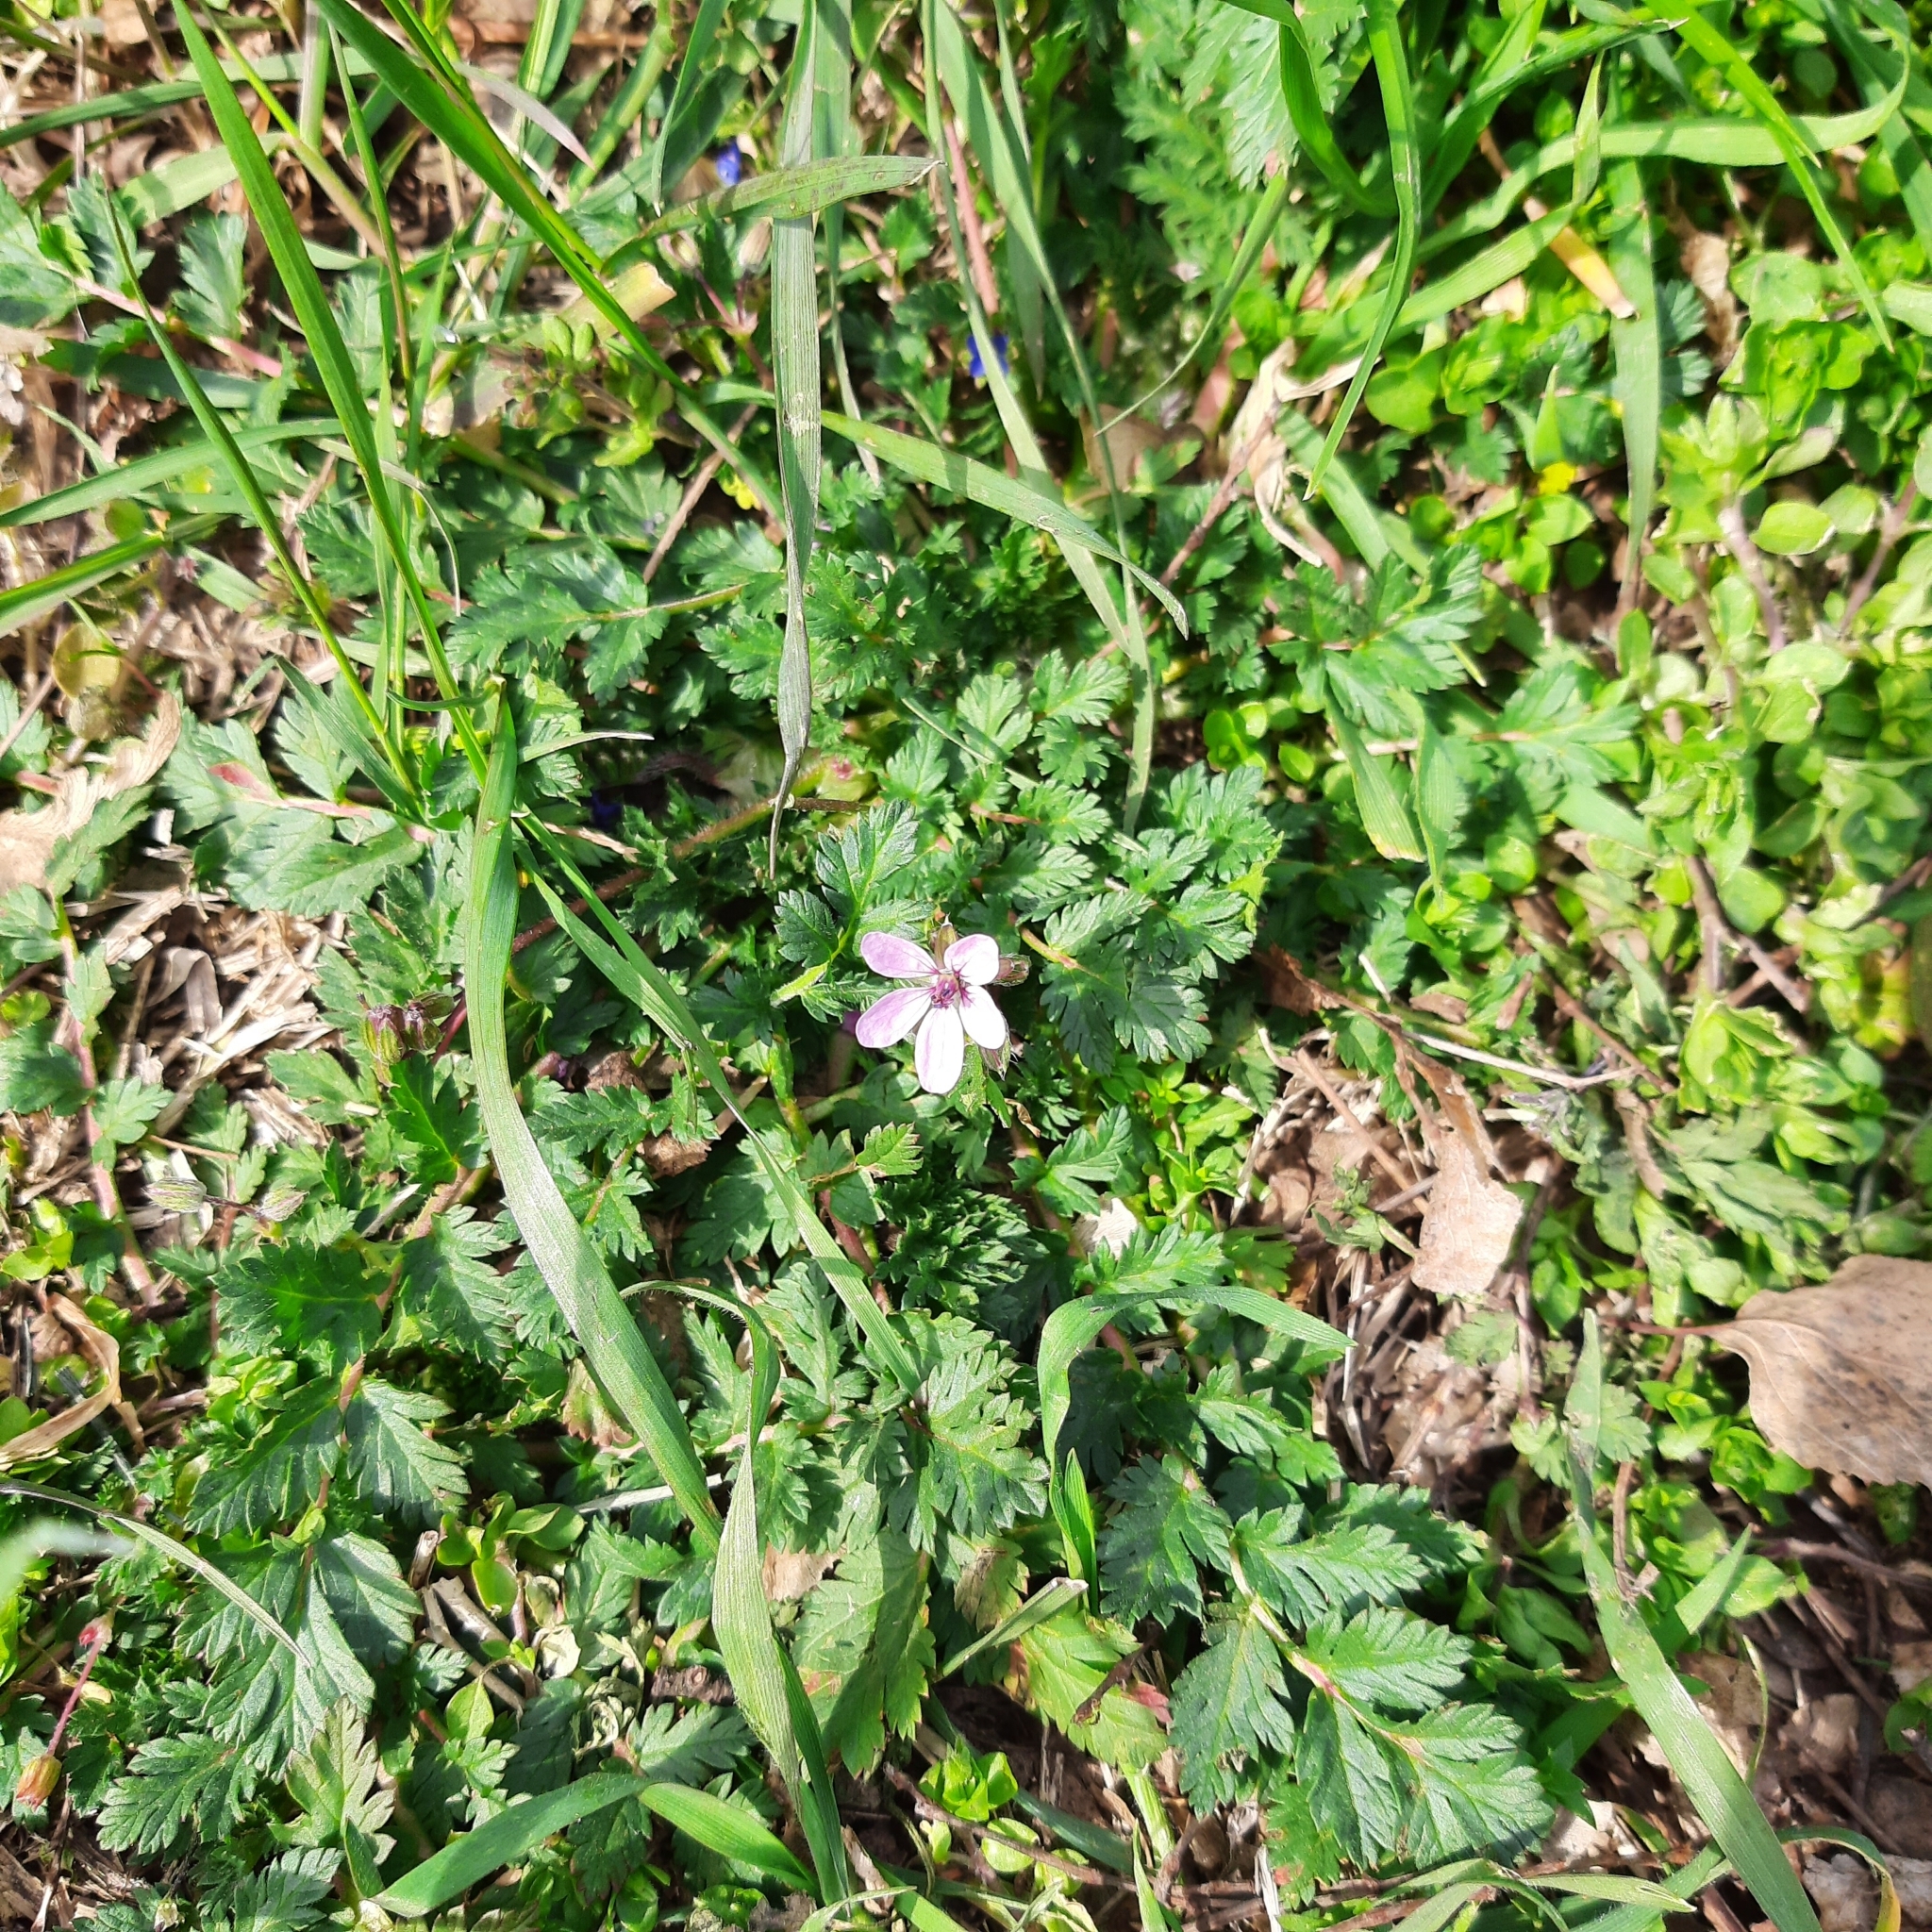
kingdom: Plantae
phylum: Tracheophyta
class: Magnoliopsida
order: Geraniales
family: Geraniaceae
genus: Erodium
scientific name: Erodium cicutarium
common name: Common stork's-bill
